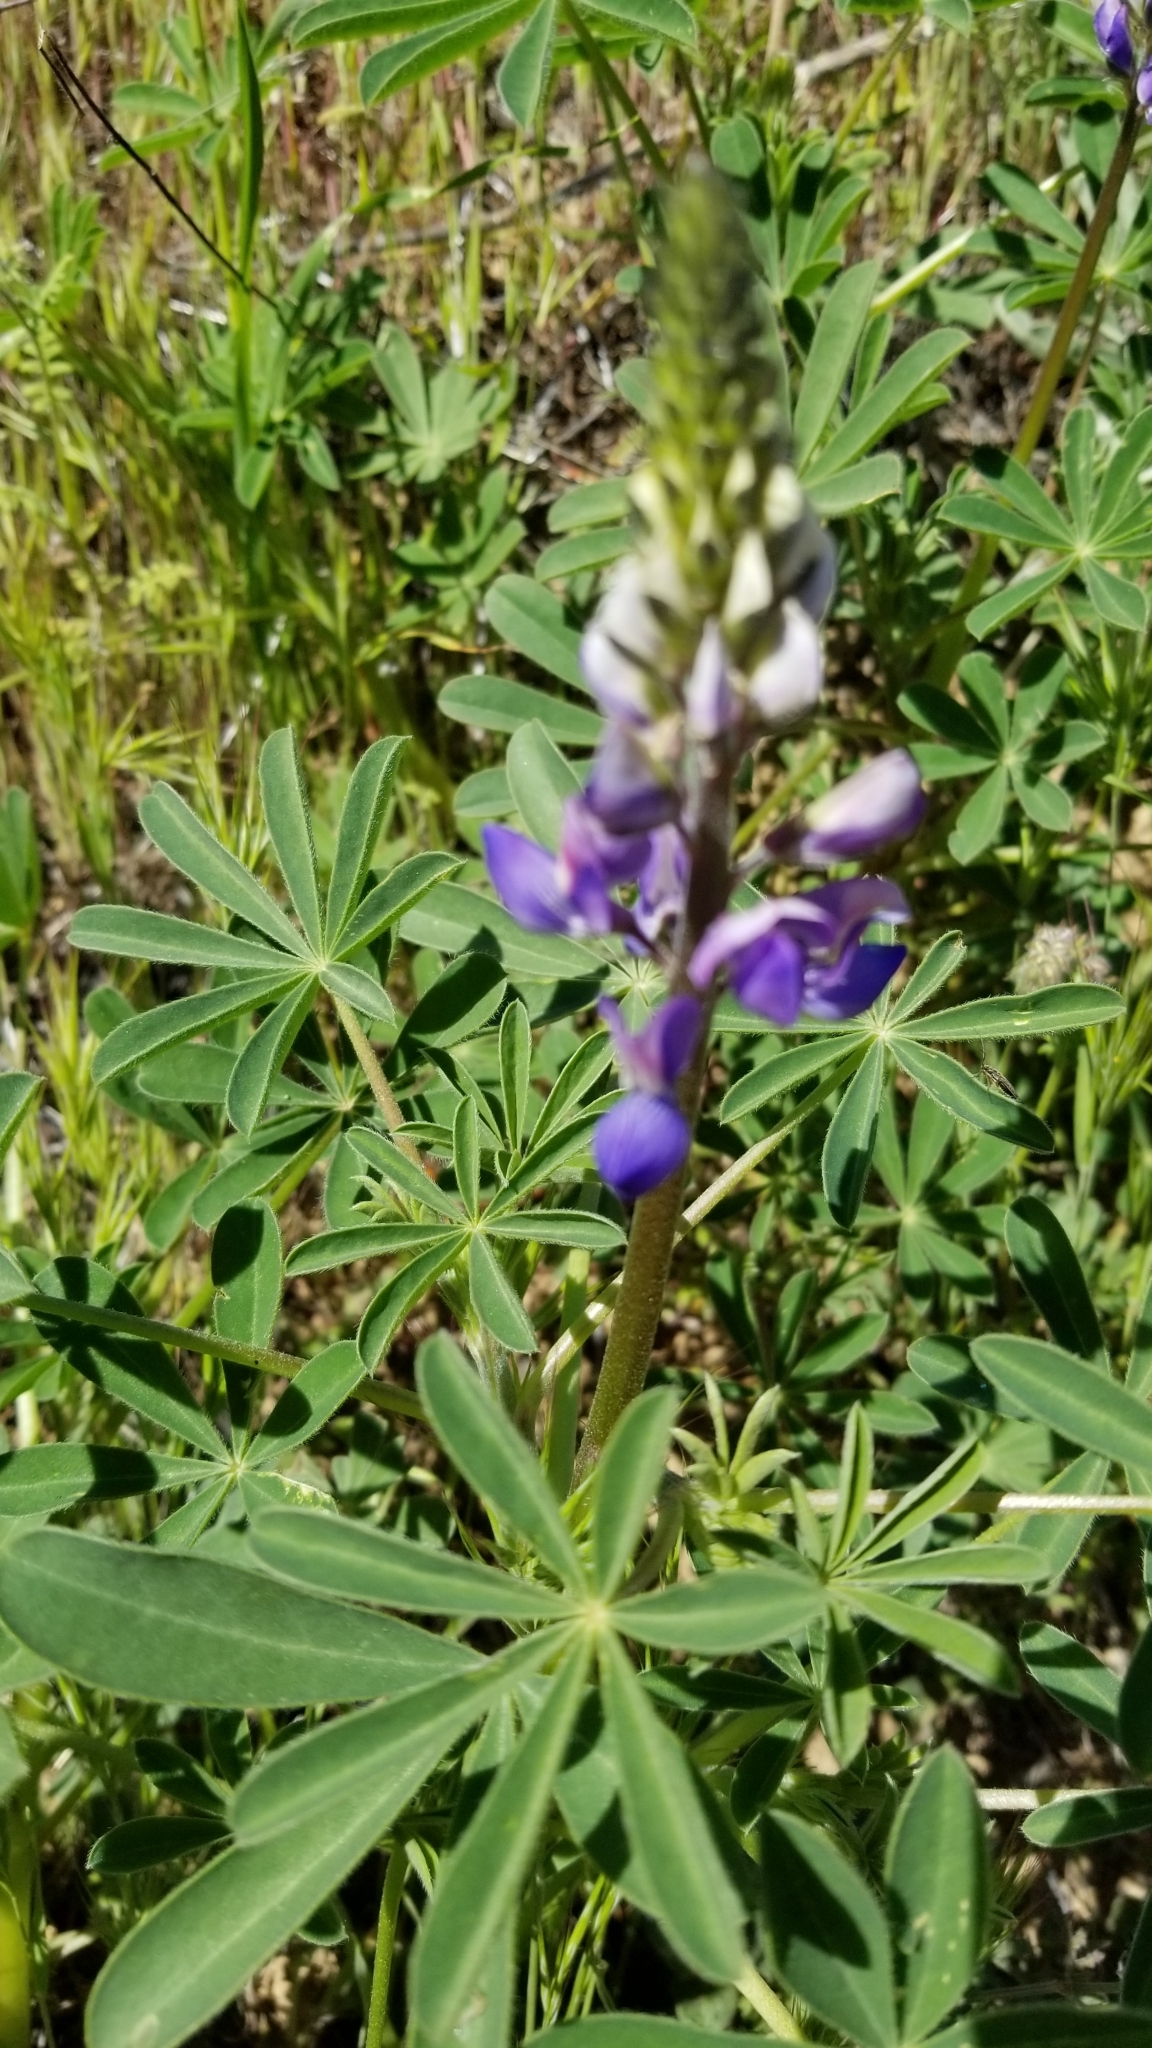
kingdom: Plantae
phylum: Tracheophyta
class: Magnoliopsida
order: Fabales
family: Fabaceae
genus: Lupinus
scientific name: Lupinus succulentus
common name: Arroyo lupine
